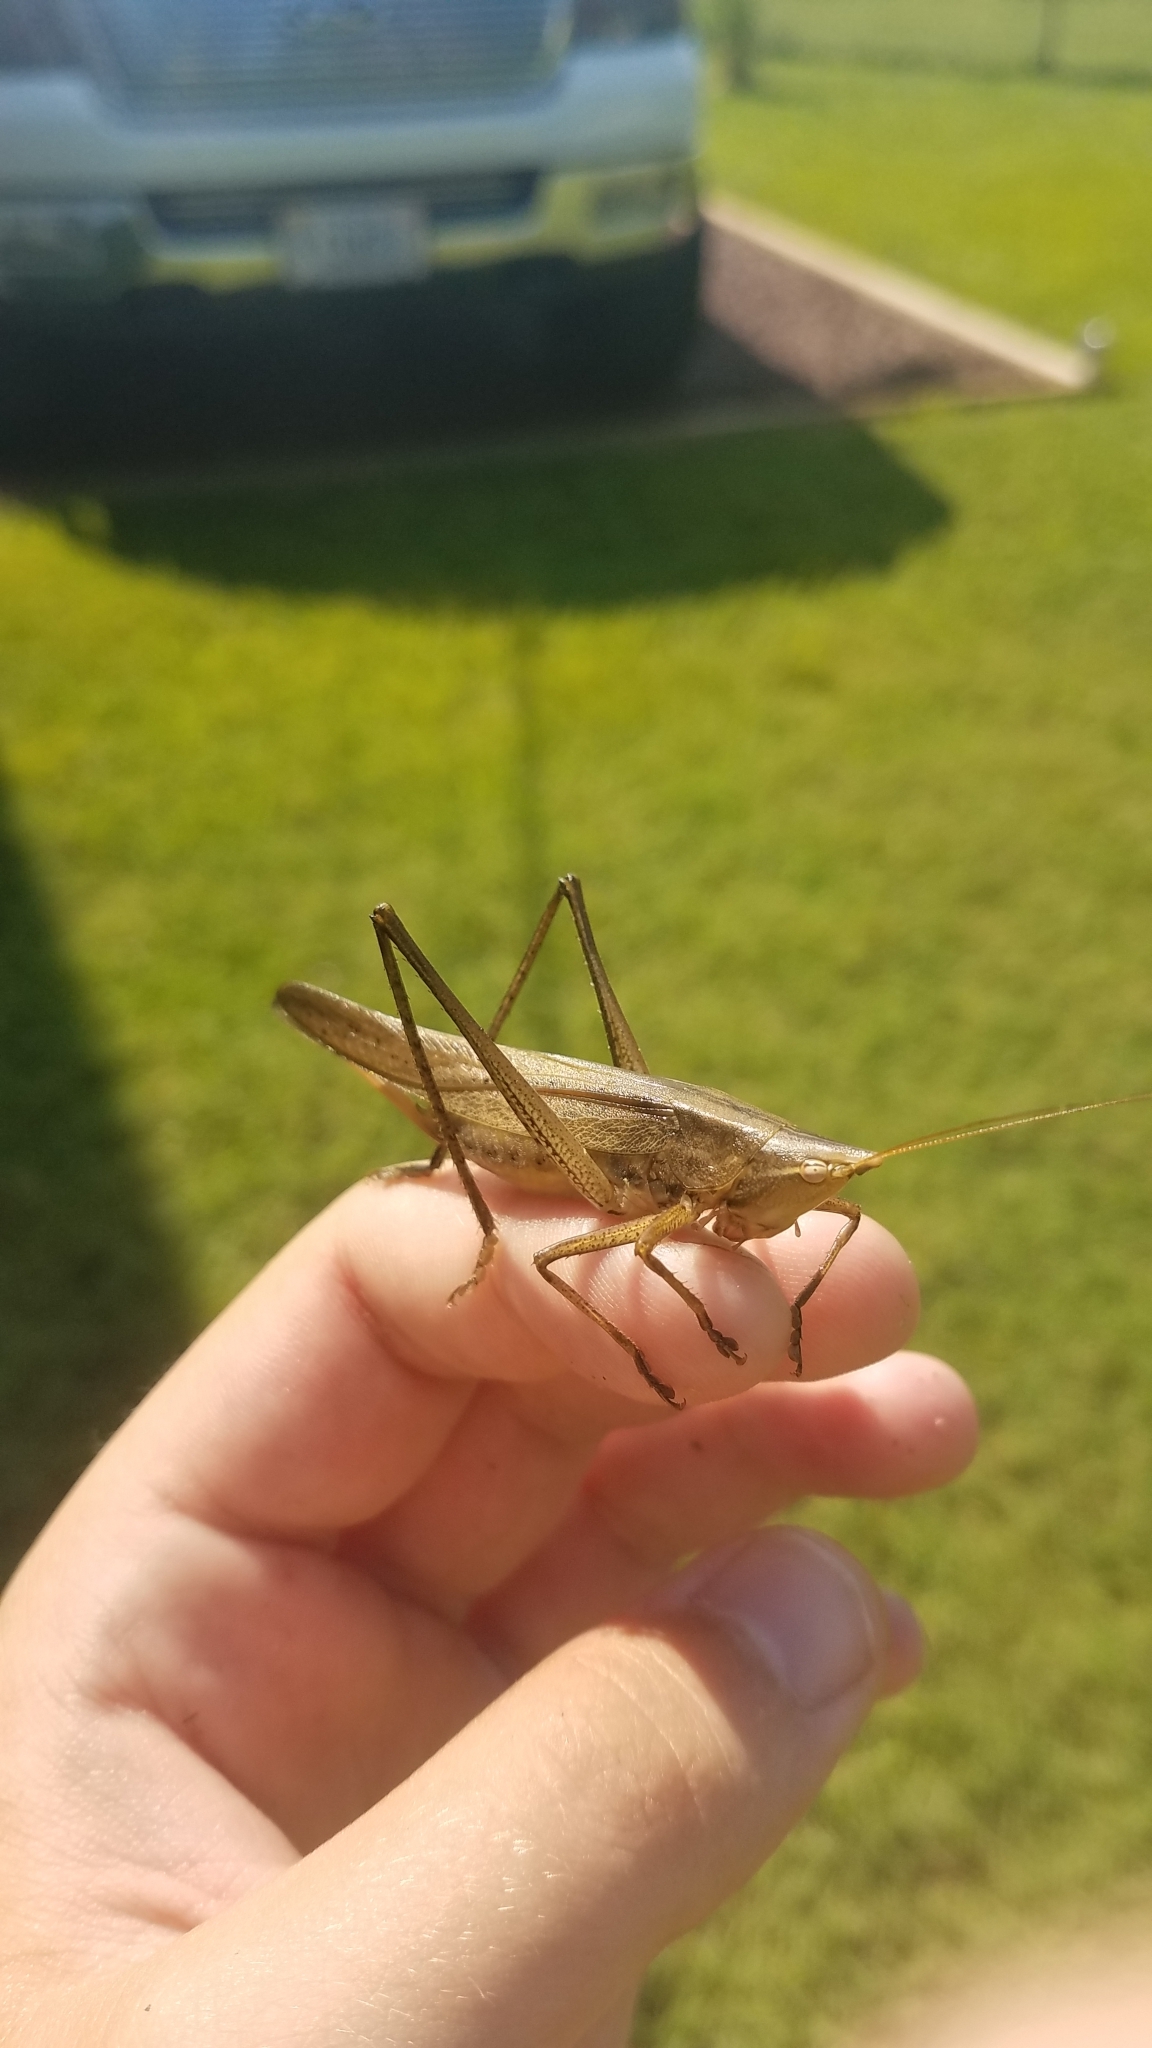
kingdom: Animalia
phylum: Arthropoda
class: Insecta
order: Orthoptera
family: Tettigoniidae
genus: Neoconocephalus
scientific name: Neoconocephalus
